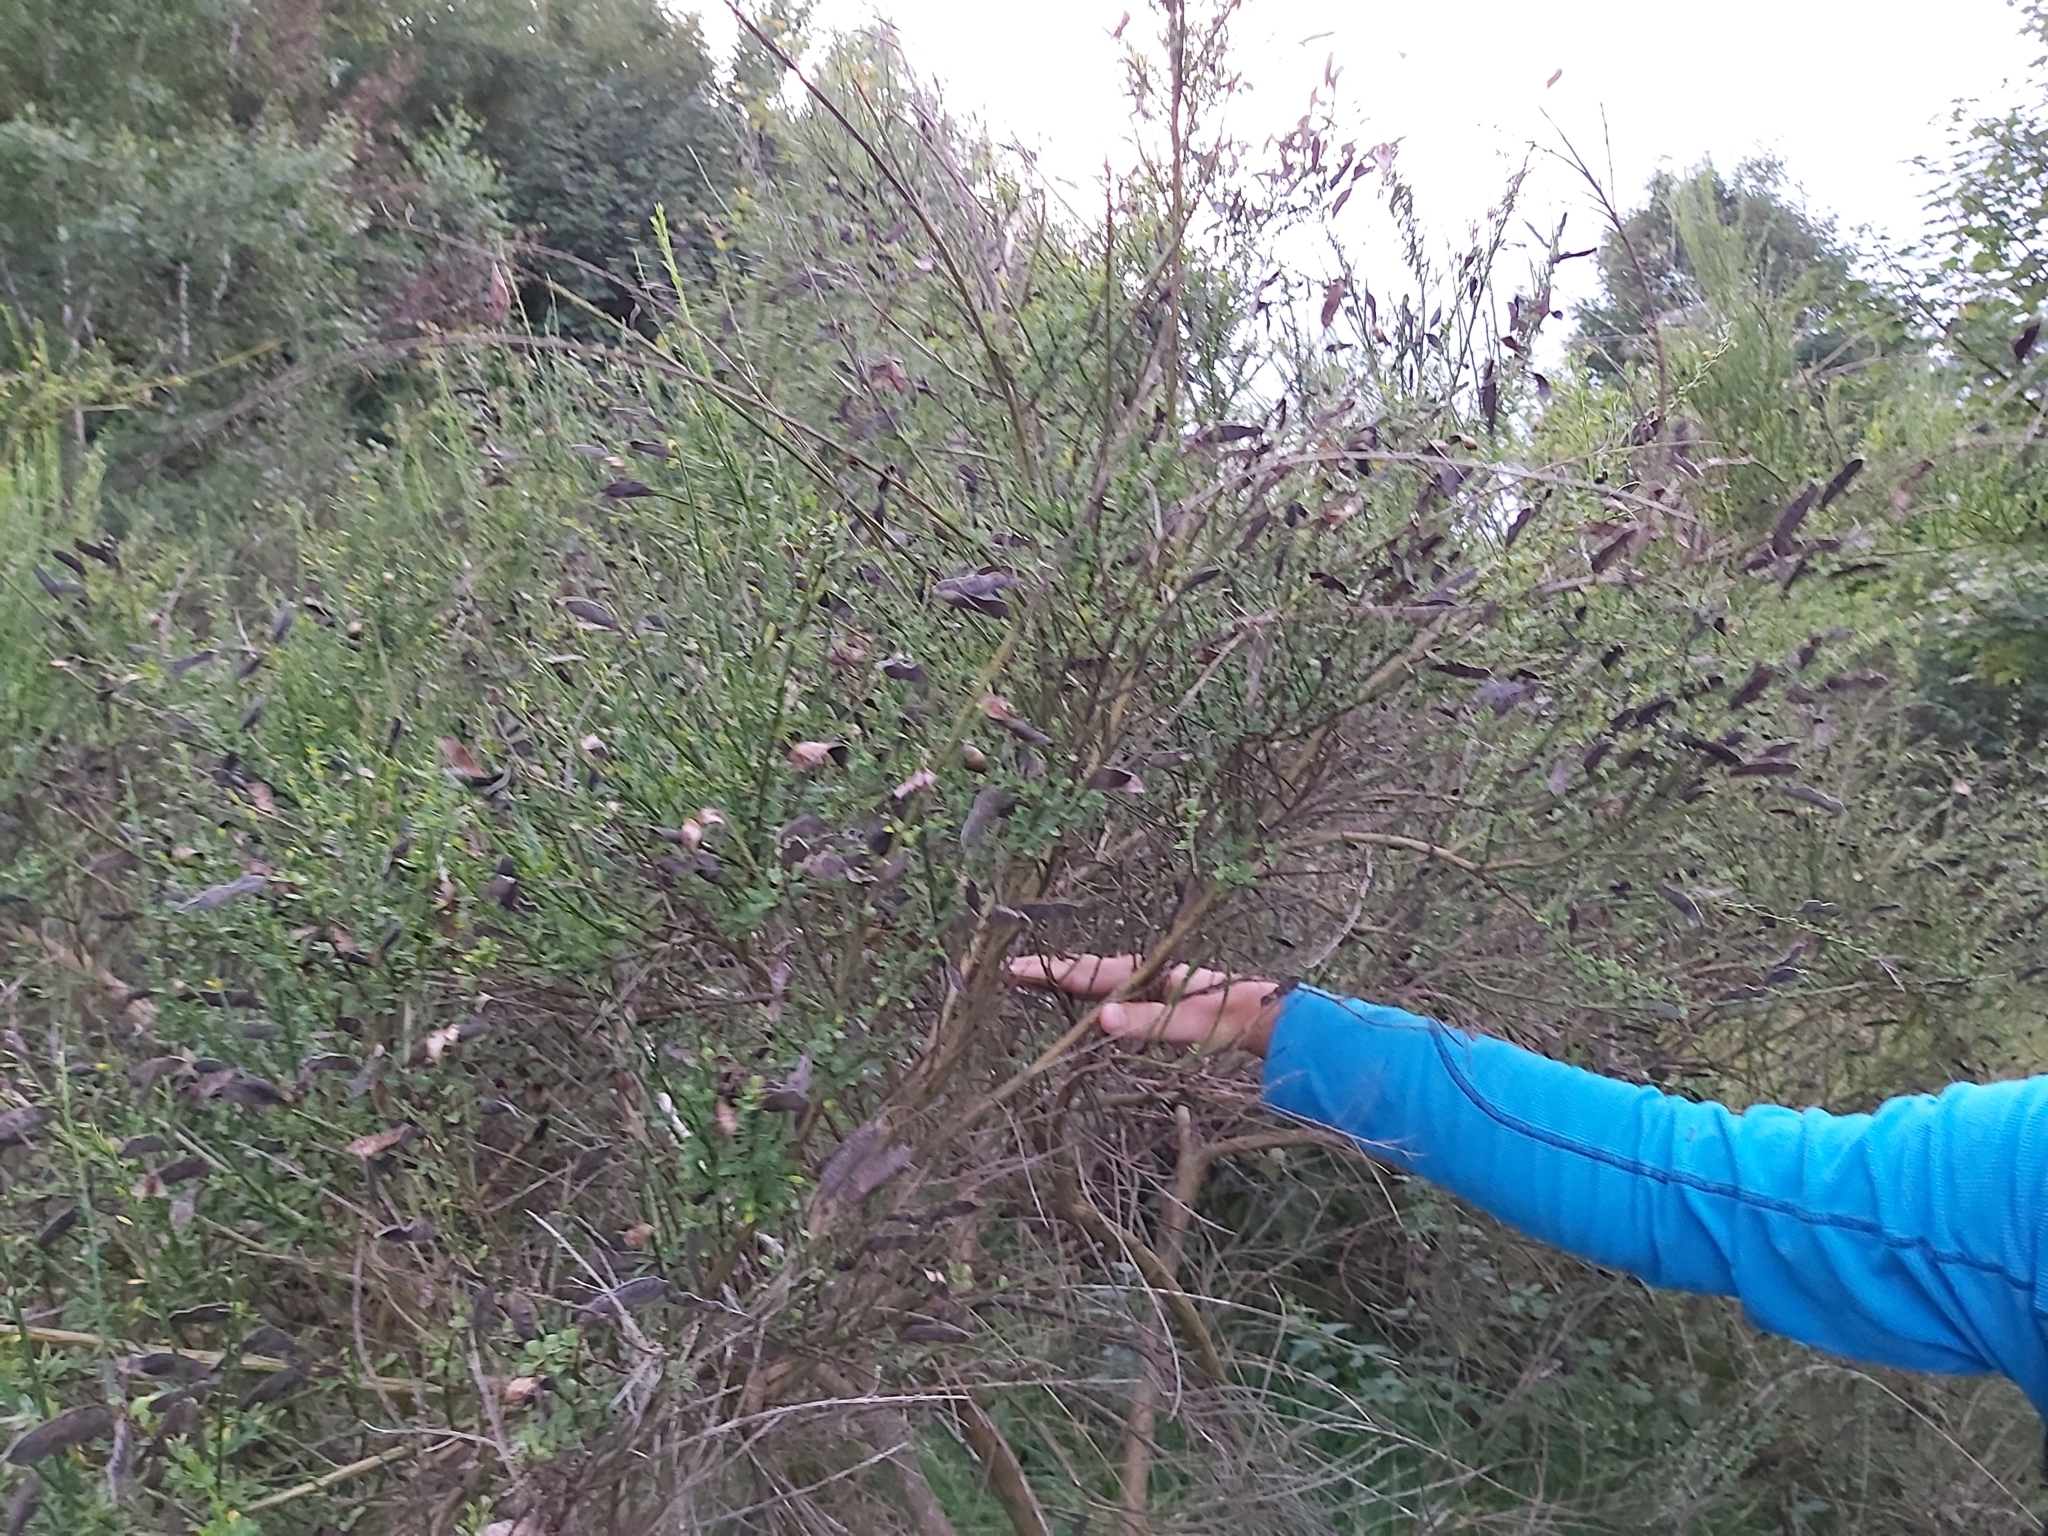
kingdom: Plantae
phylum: Tracheophyta
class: Magnoliopsida
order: Fabales
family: Fabaceae
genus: Cytisus
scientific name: Cytisus scoparius
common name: Scotch broom
